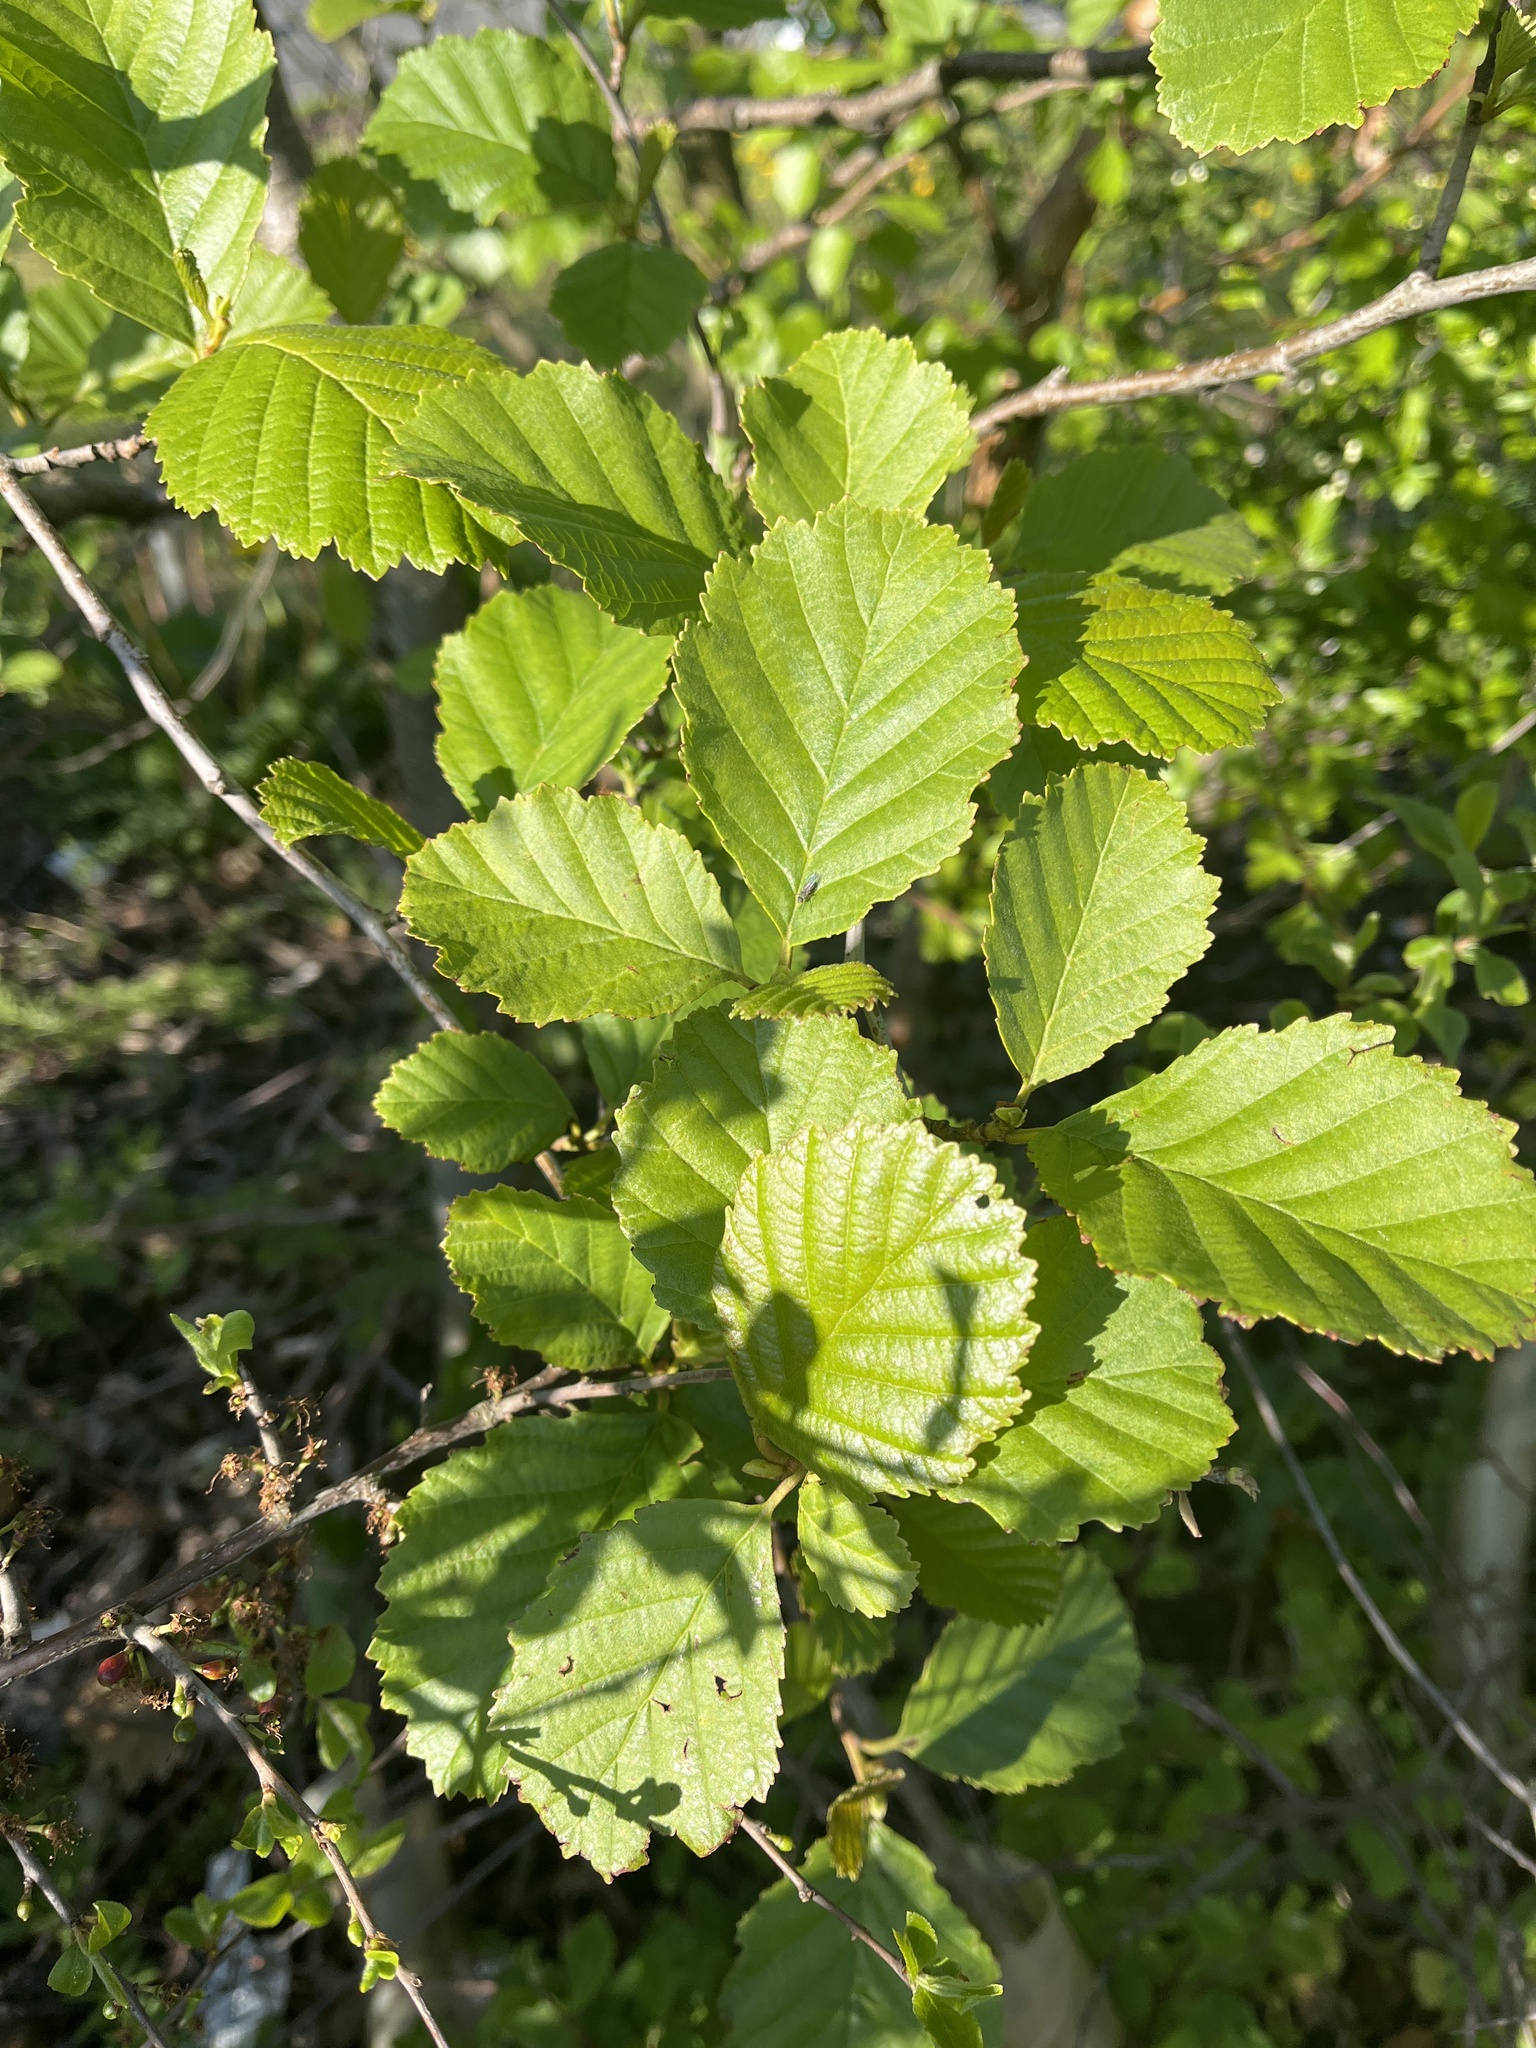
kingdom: Plantae
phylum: Tracheophyta
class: Magnoliopsida
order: Fagales
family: Betulaceae
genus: Alnus
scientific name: Alnus glutinosa
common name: Black alder
